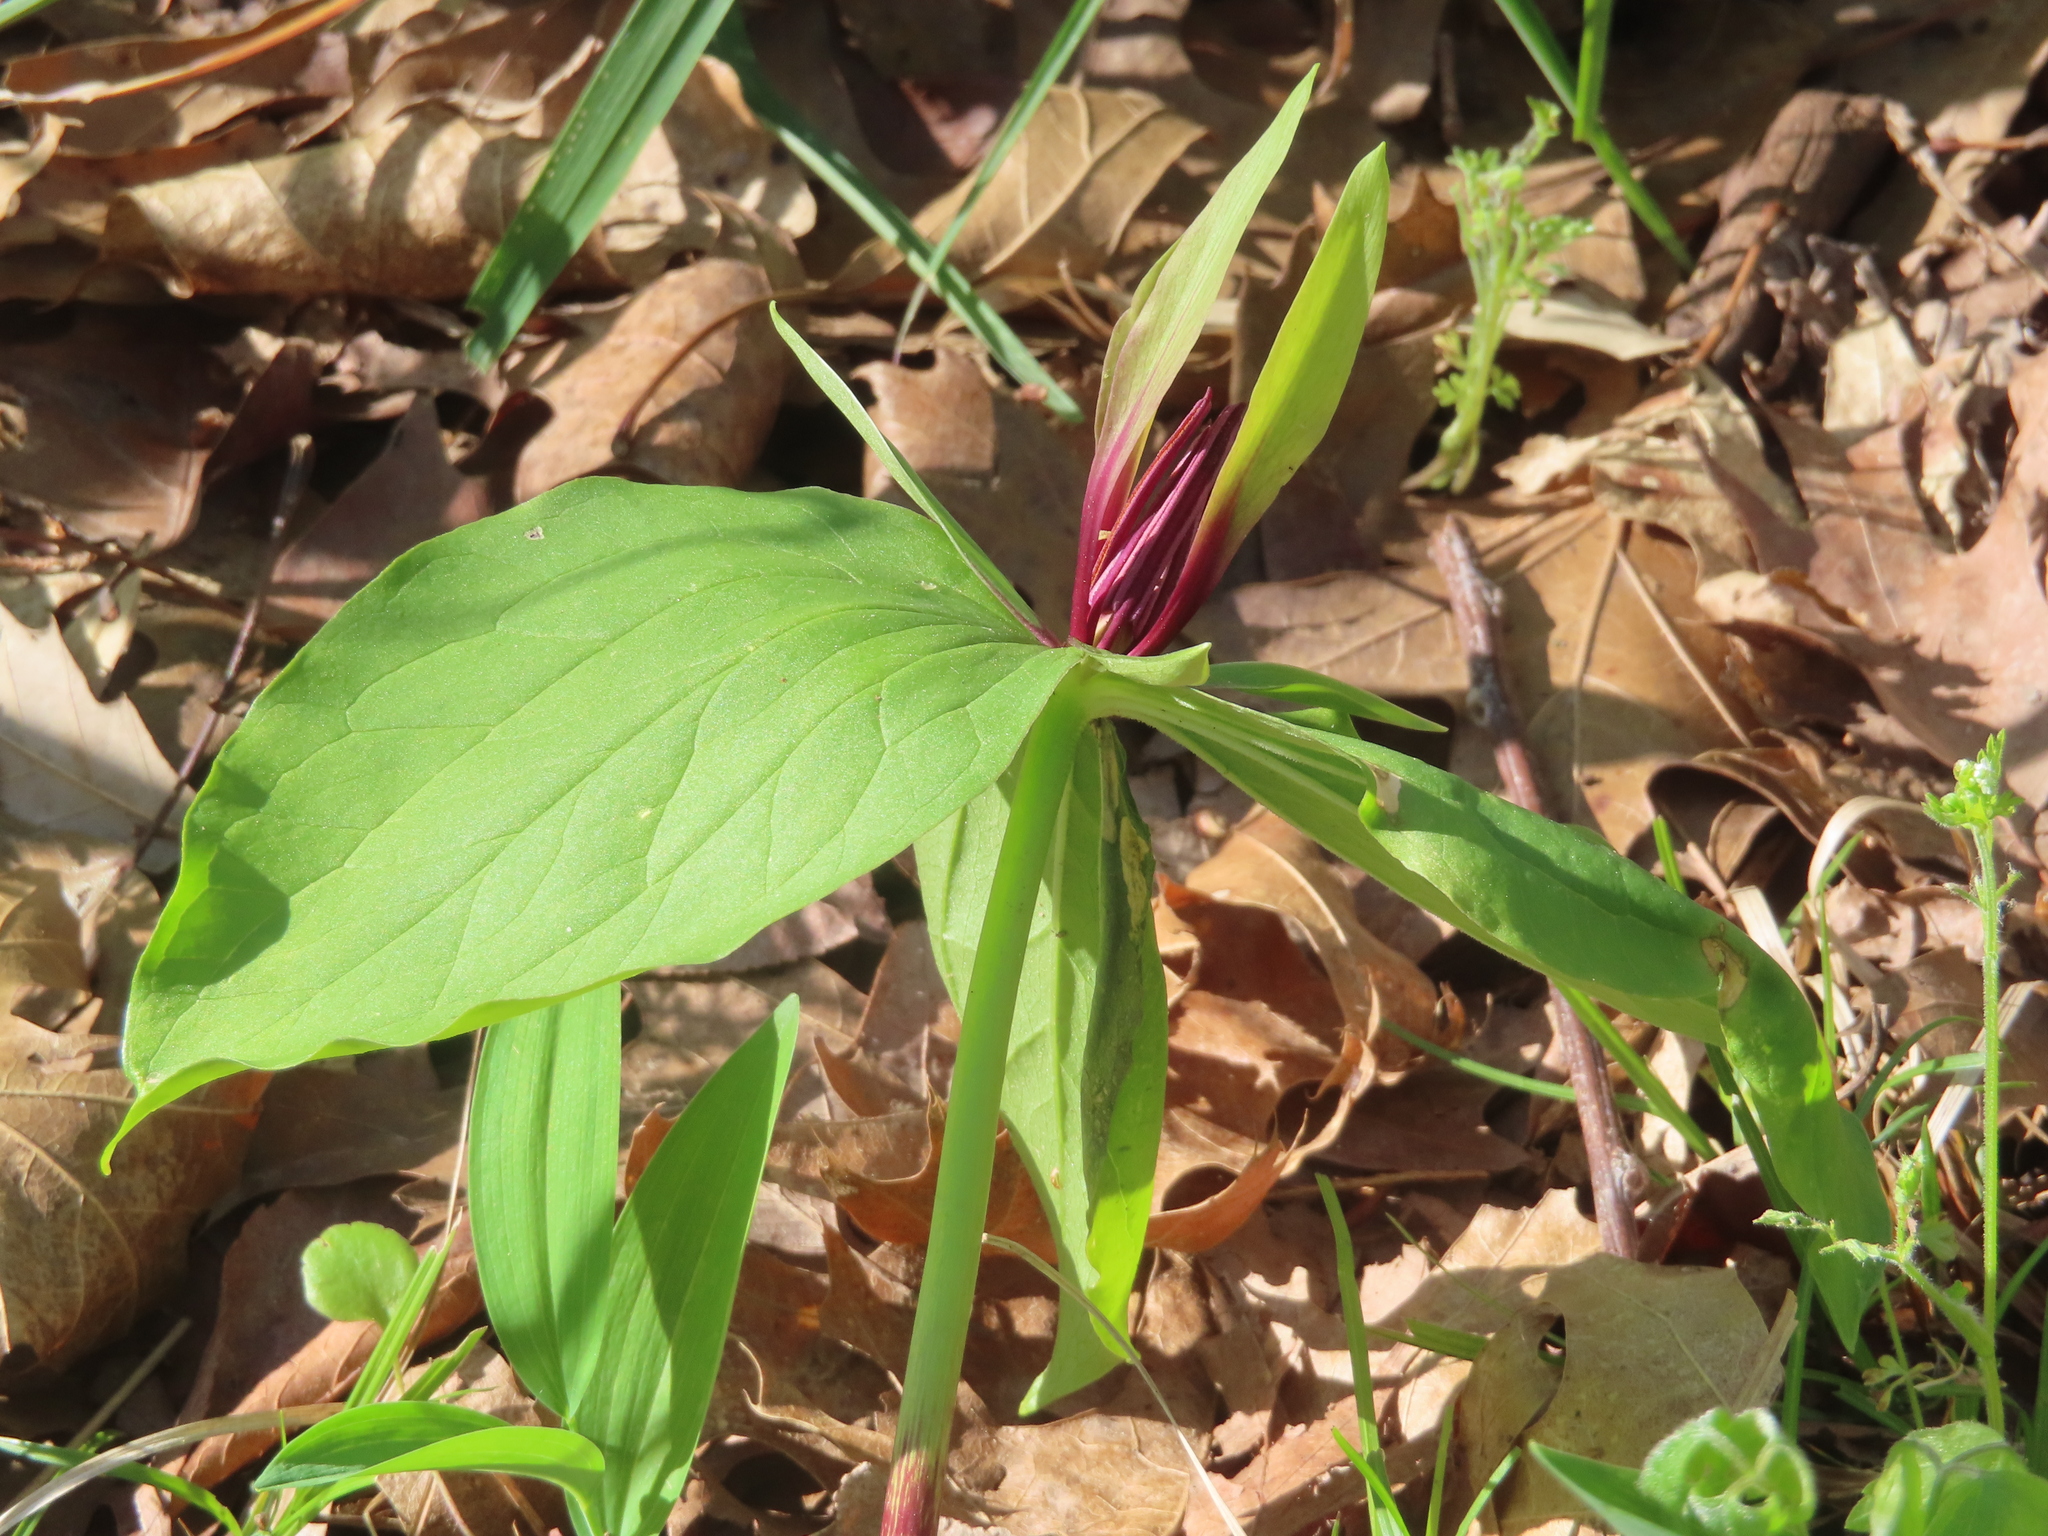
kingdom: Plantae
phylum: Tracheophyta
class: Liliopsida
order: Liliales
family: Melanthiaceae
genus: Trillium
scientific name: Trillium viridescens
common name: Ozark green trillium
